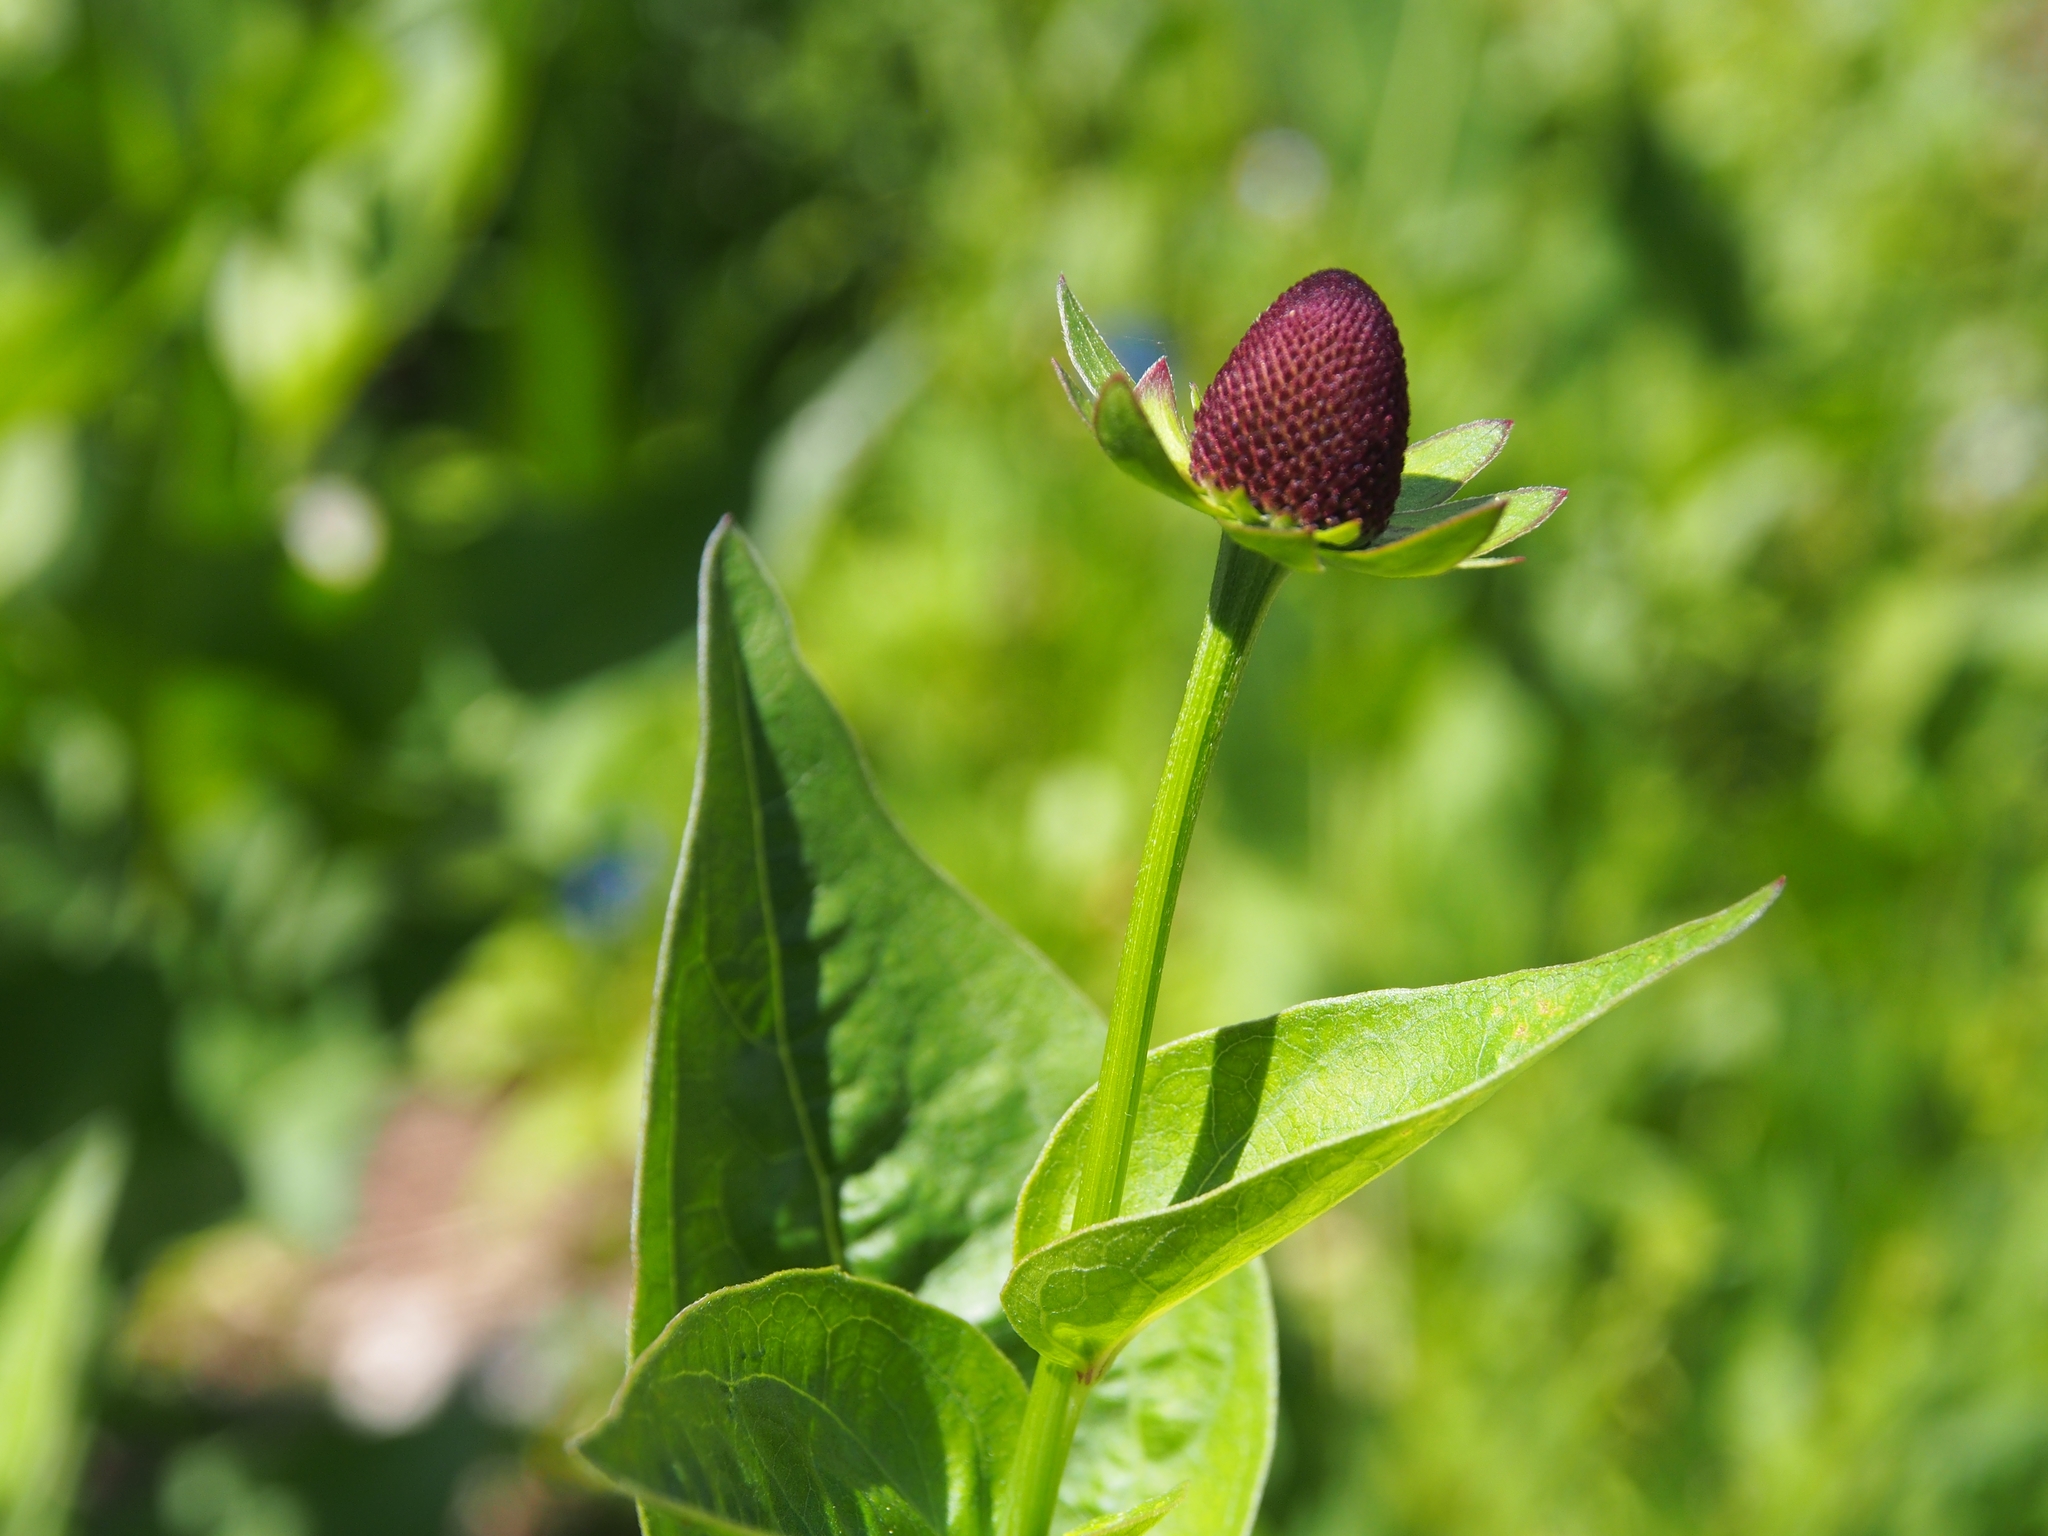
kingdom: Plantae
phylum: Tracheophyta
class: Magnoliopsida
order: Asterales
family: Asteraceae
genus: Rudbeckia
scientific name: Rudbeckia occidentalis
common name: Western coneflower
